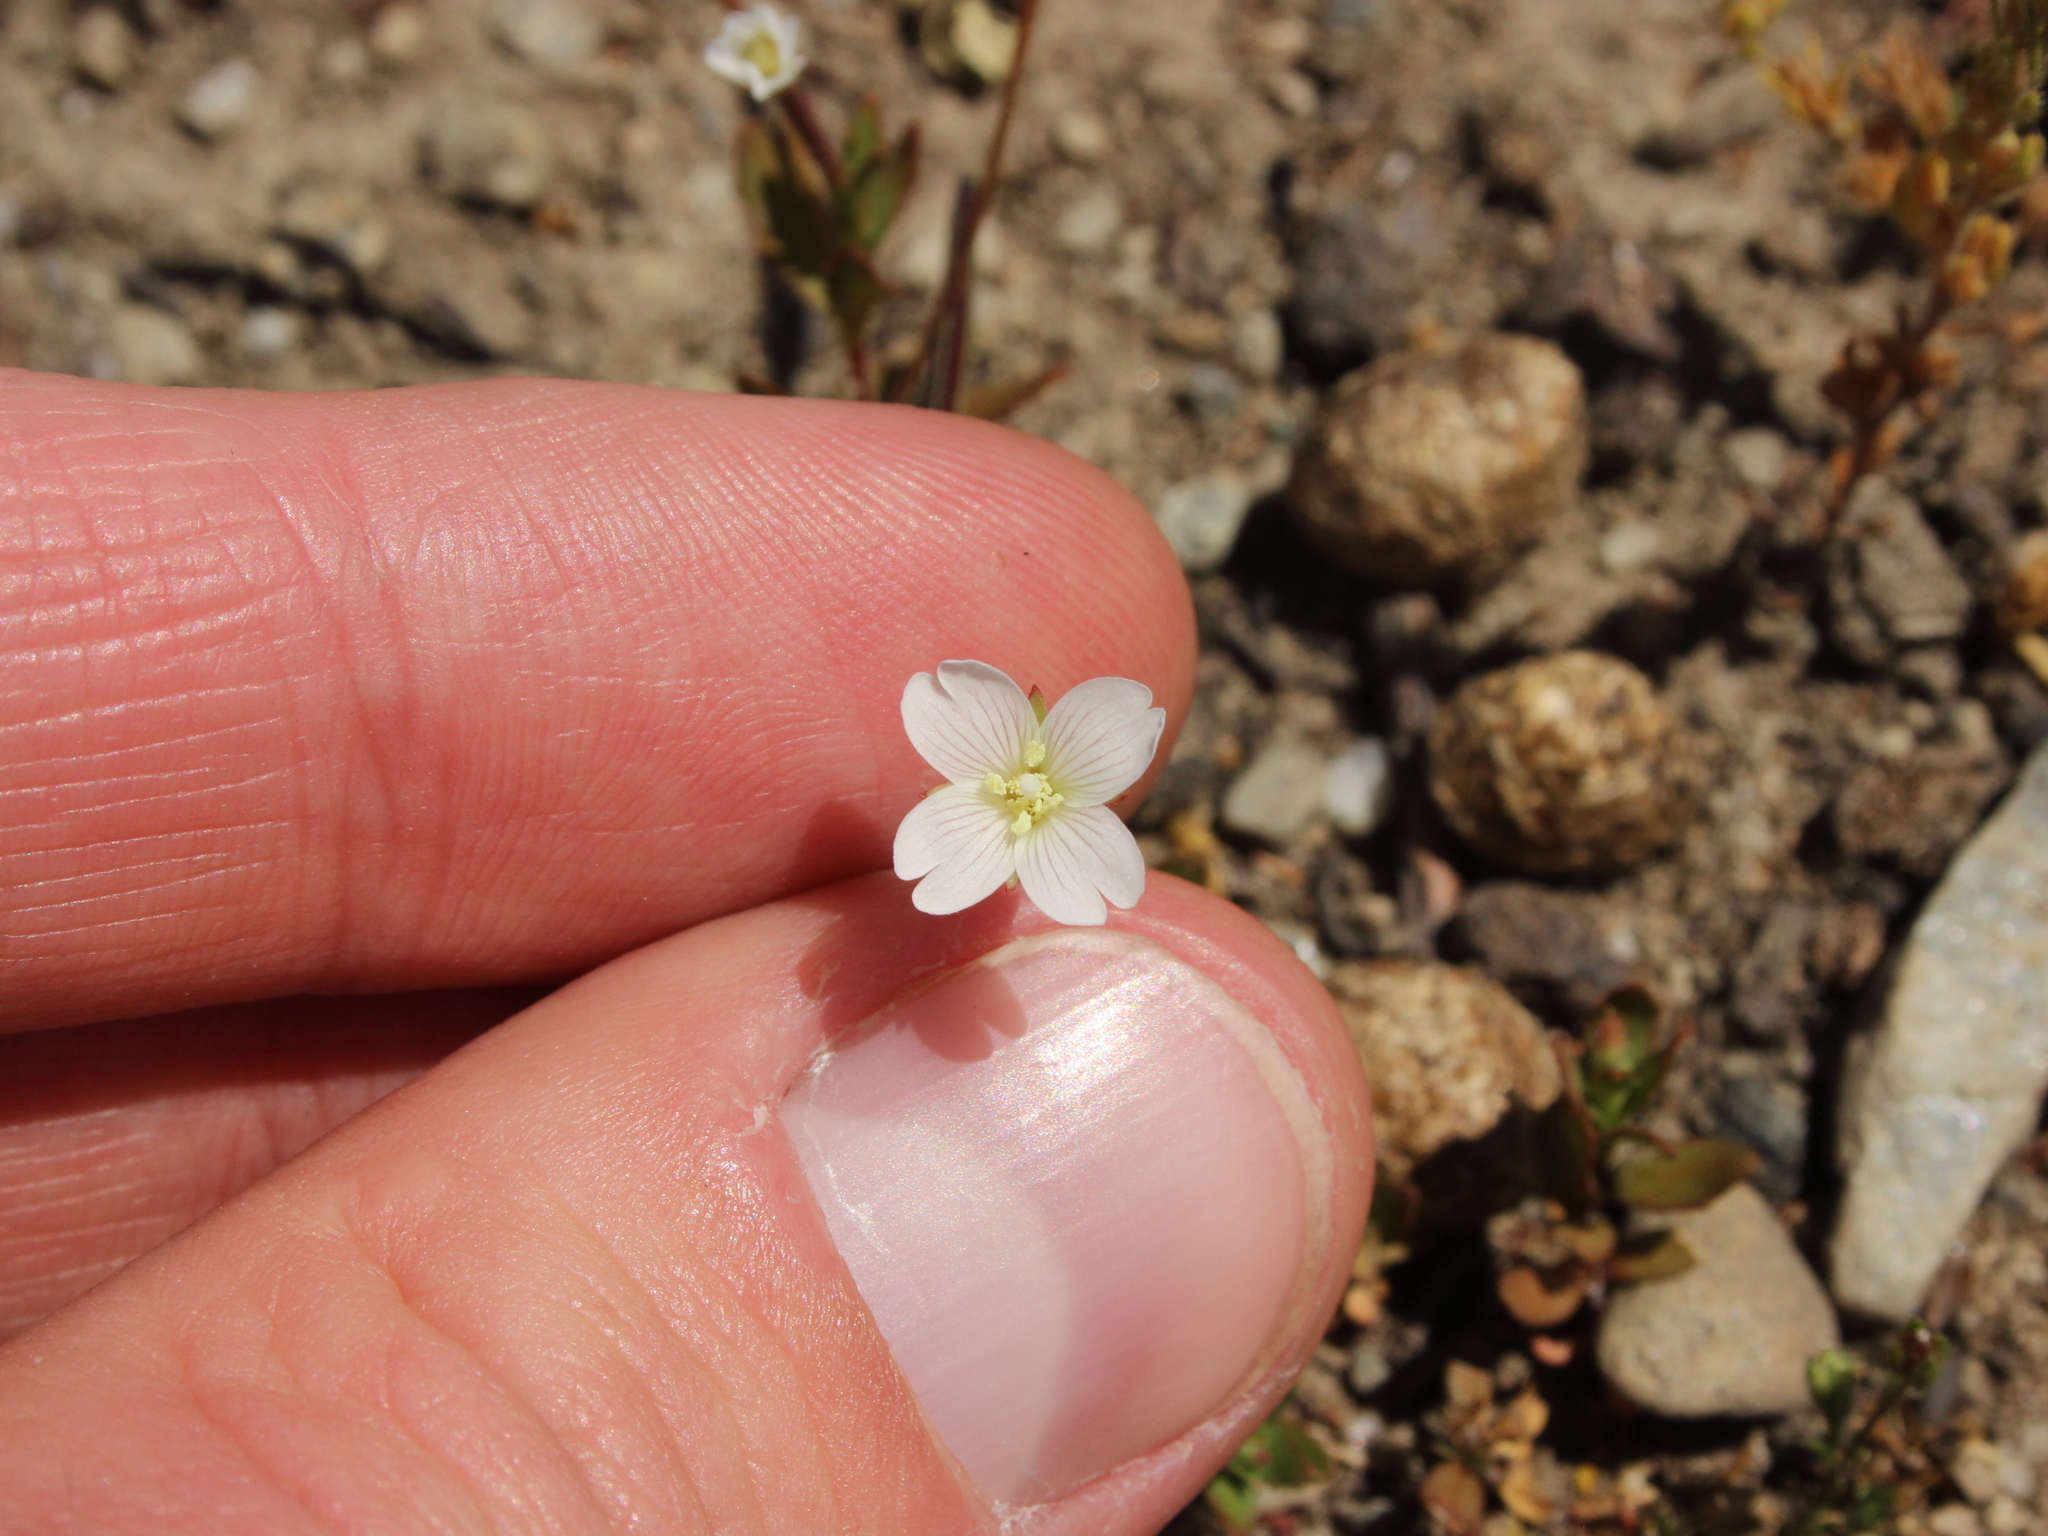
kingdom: Plantae
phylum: Tracheophyta
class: Magnoliopsida
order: Myrtales
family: Onagraceae
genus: Epilobium
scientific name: Epilobium hectorii
